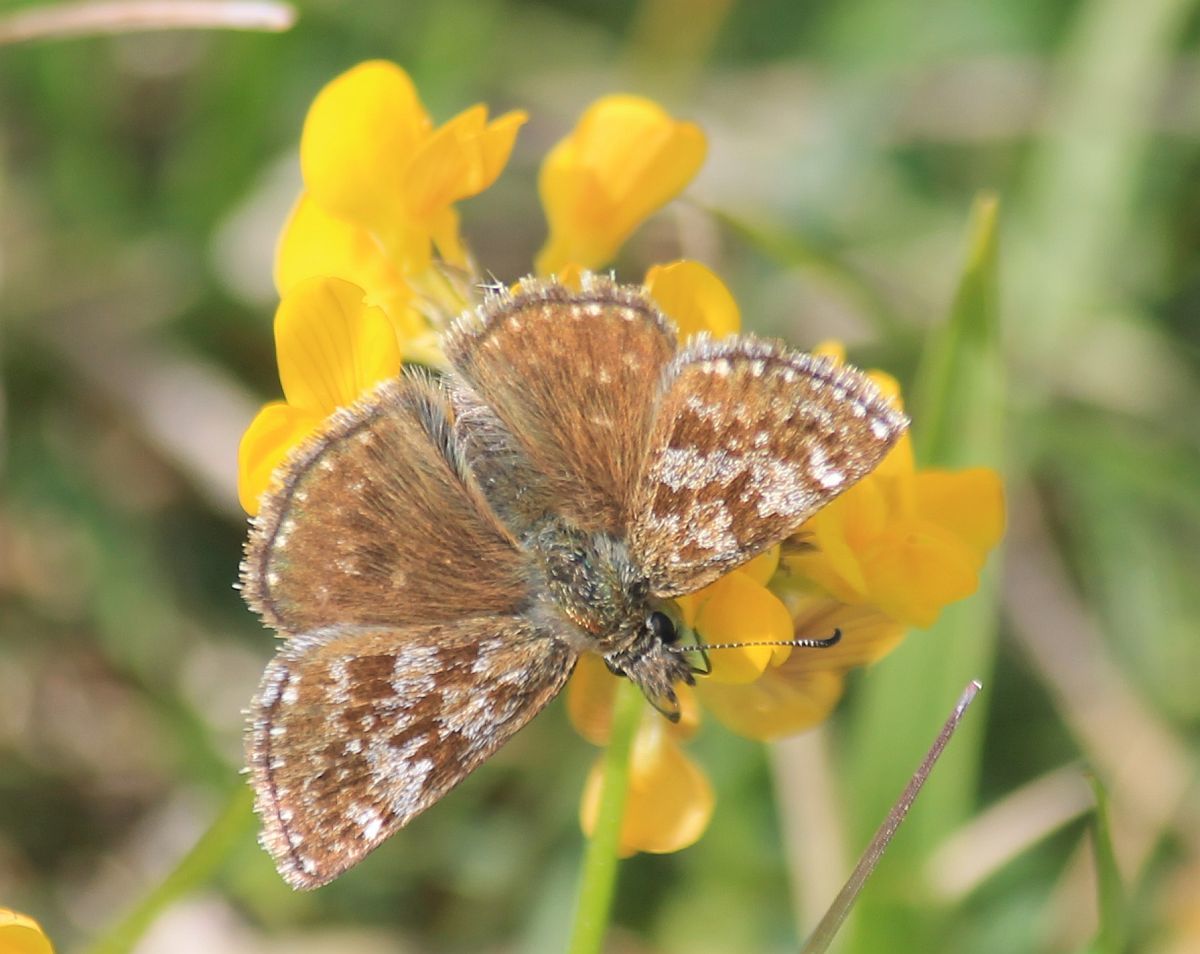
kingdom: Animalia
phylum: Arthropoda
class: Insecta
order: Lepidoptera
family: Hesperiidae
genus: Erynnis
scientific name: Erynnis tages
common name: Dingy skipper
